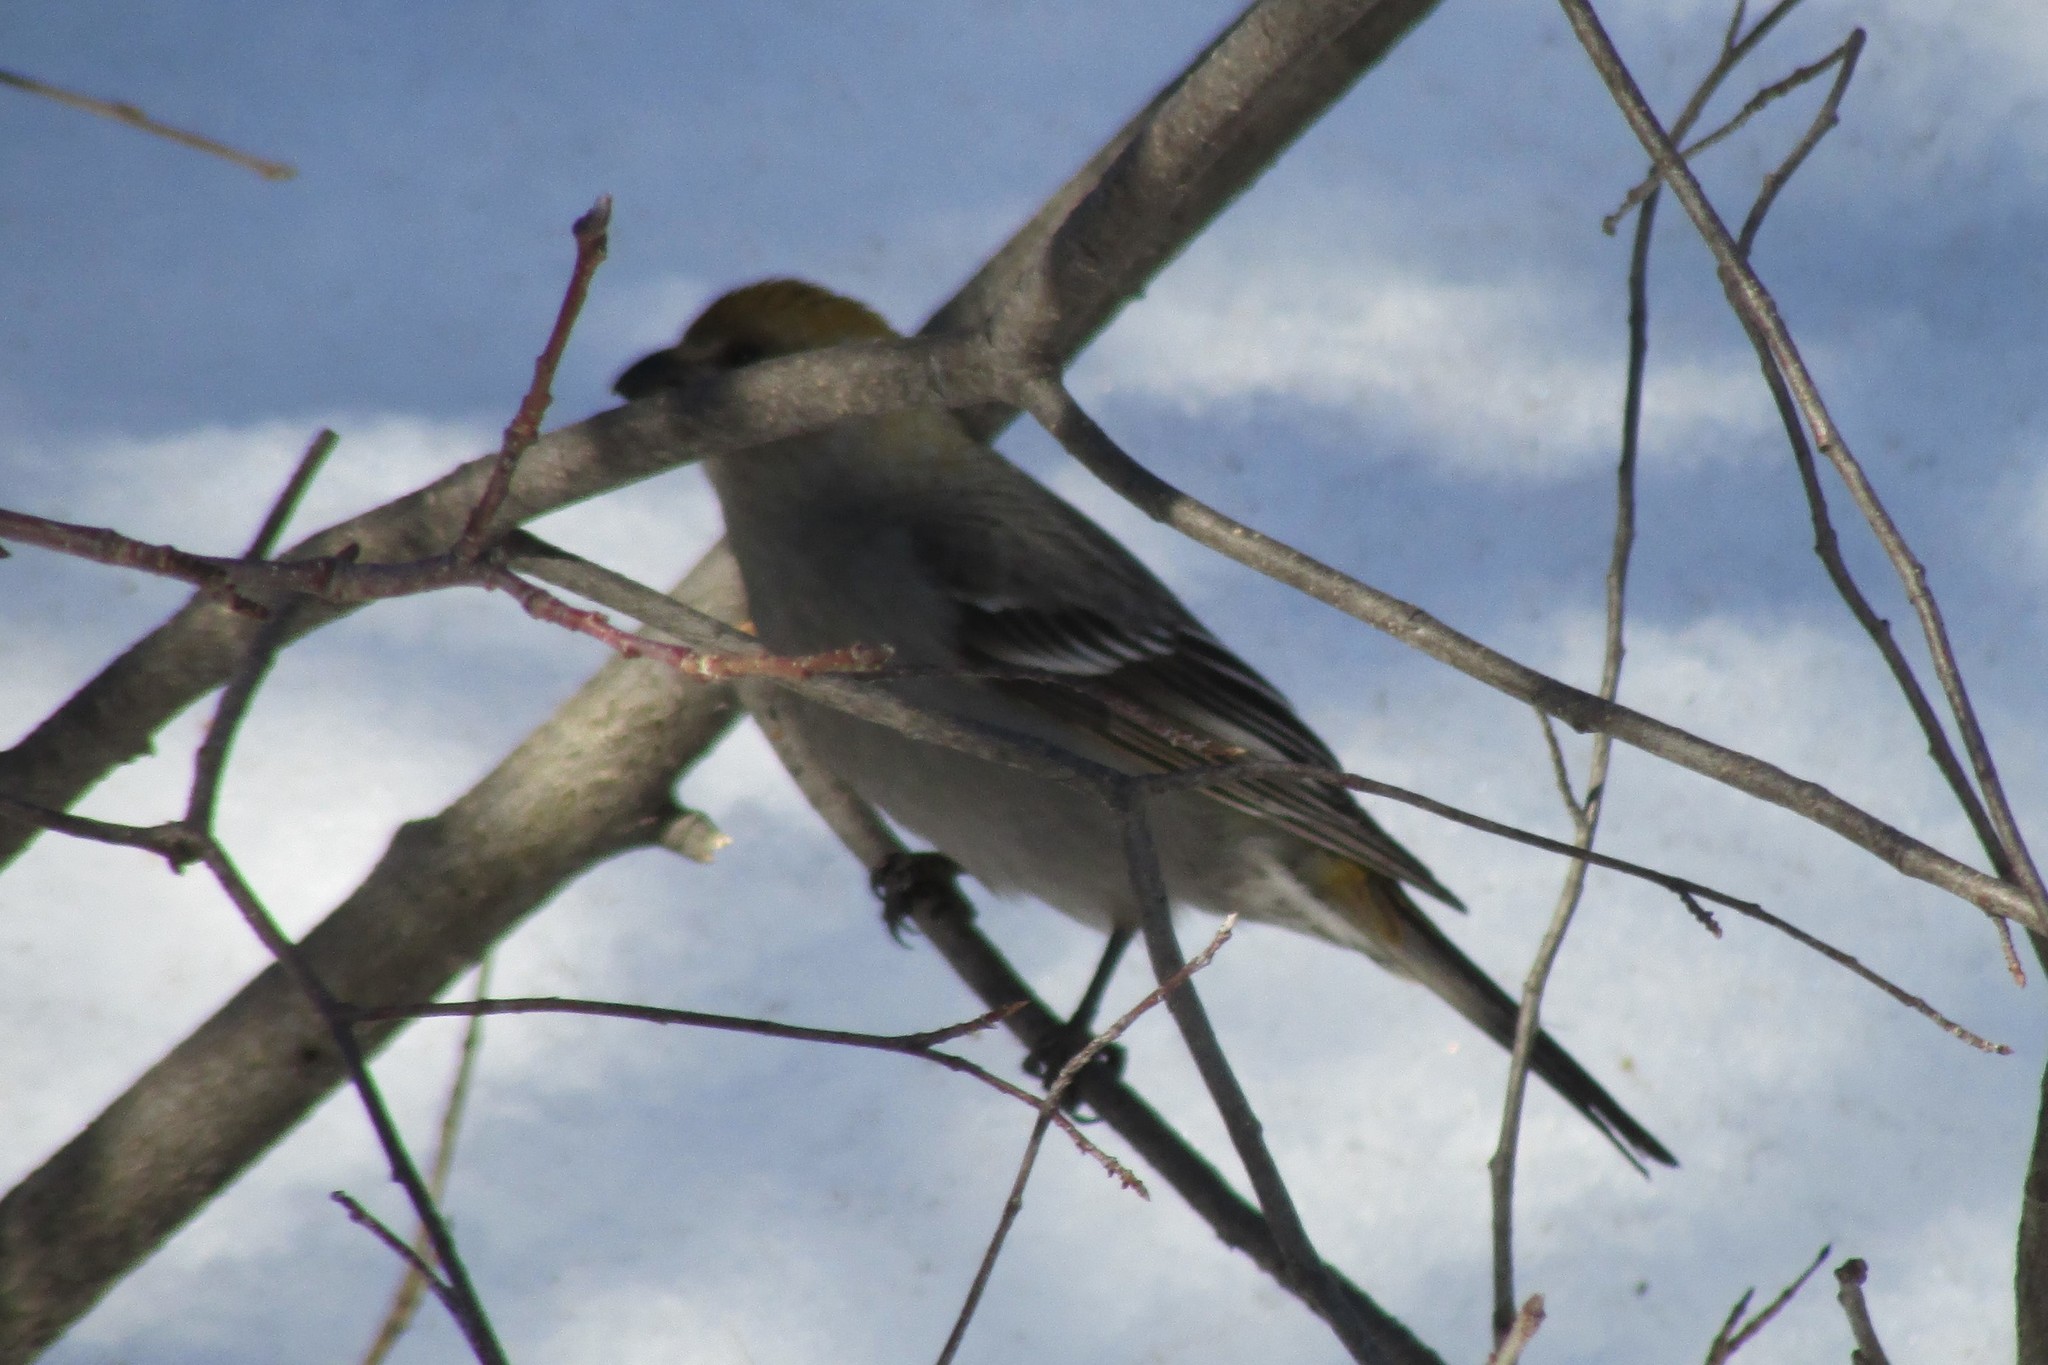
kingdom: Animalia
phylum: Chordata
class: Aves
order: Passeriformes
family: Fringillidae
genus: Pinicola
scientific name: Pinicola enucleator
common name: Pine grosbeak
